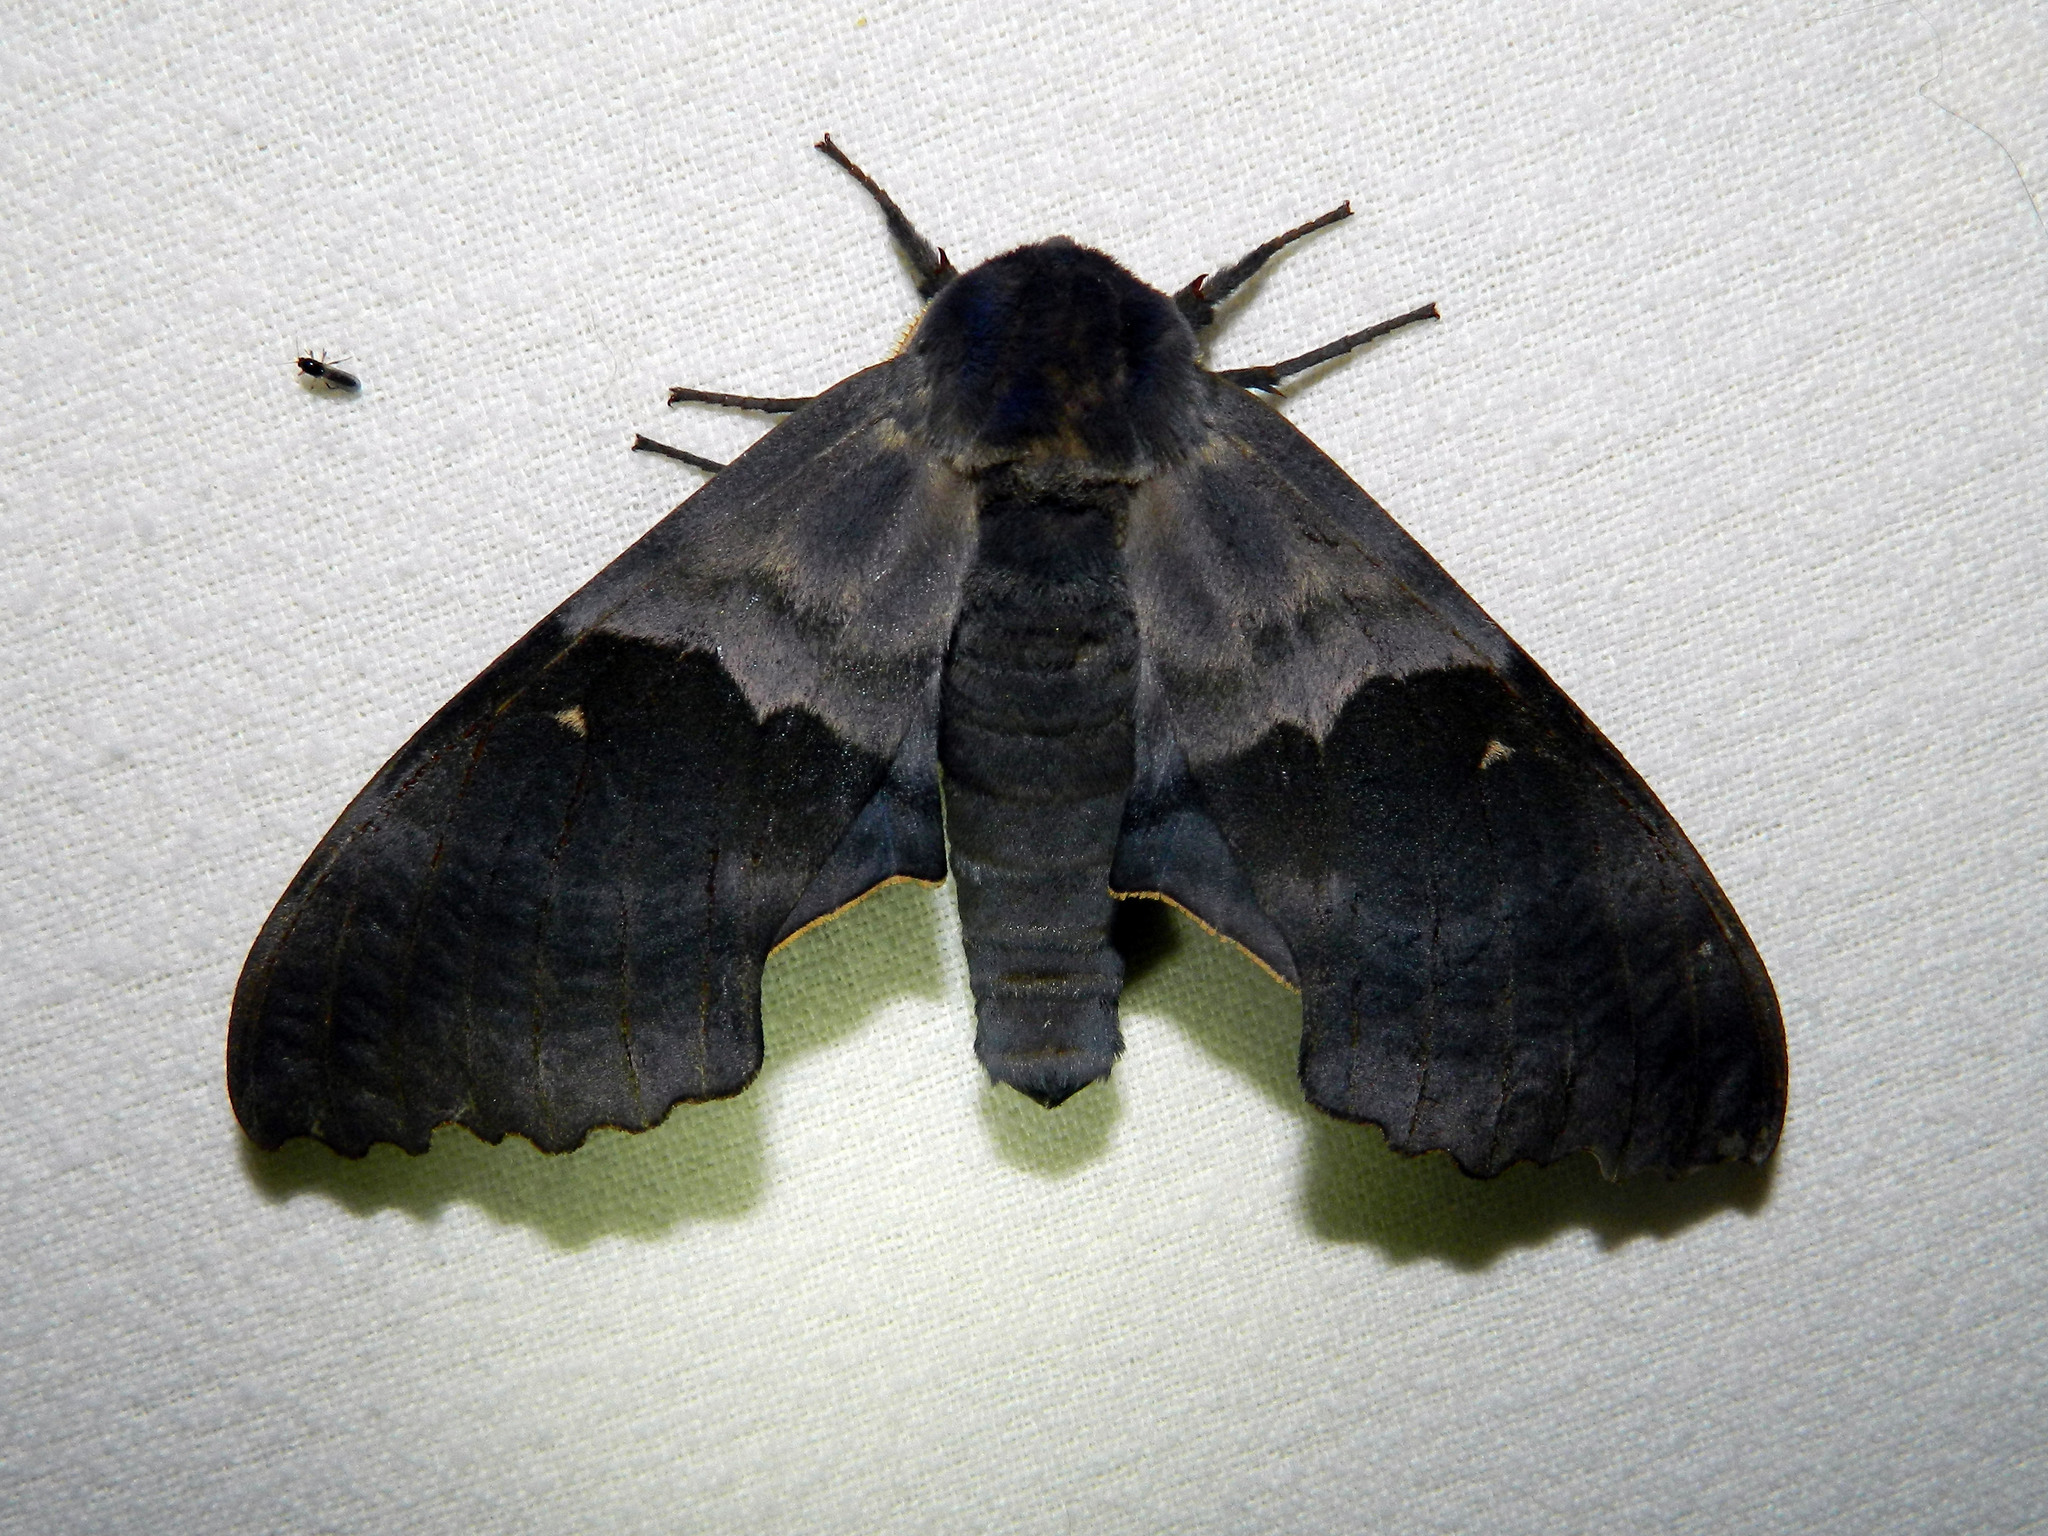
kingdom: Animalia
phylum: Arthropoda
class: Insecta
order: Lepidoptera
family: Sphingidae
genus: Pachysphinx
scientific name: Pachysphinx modesta
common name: Big poplar sphinx
